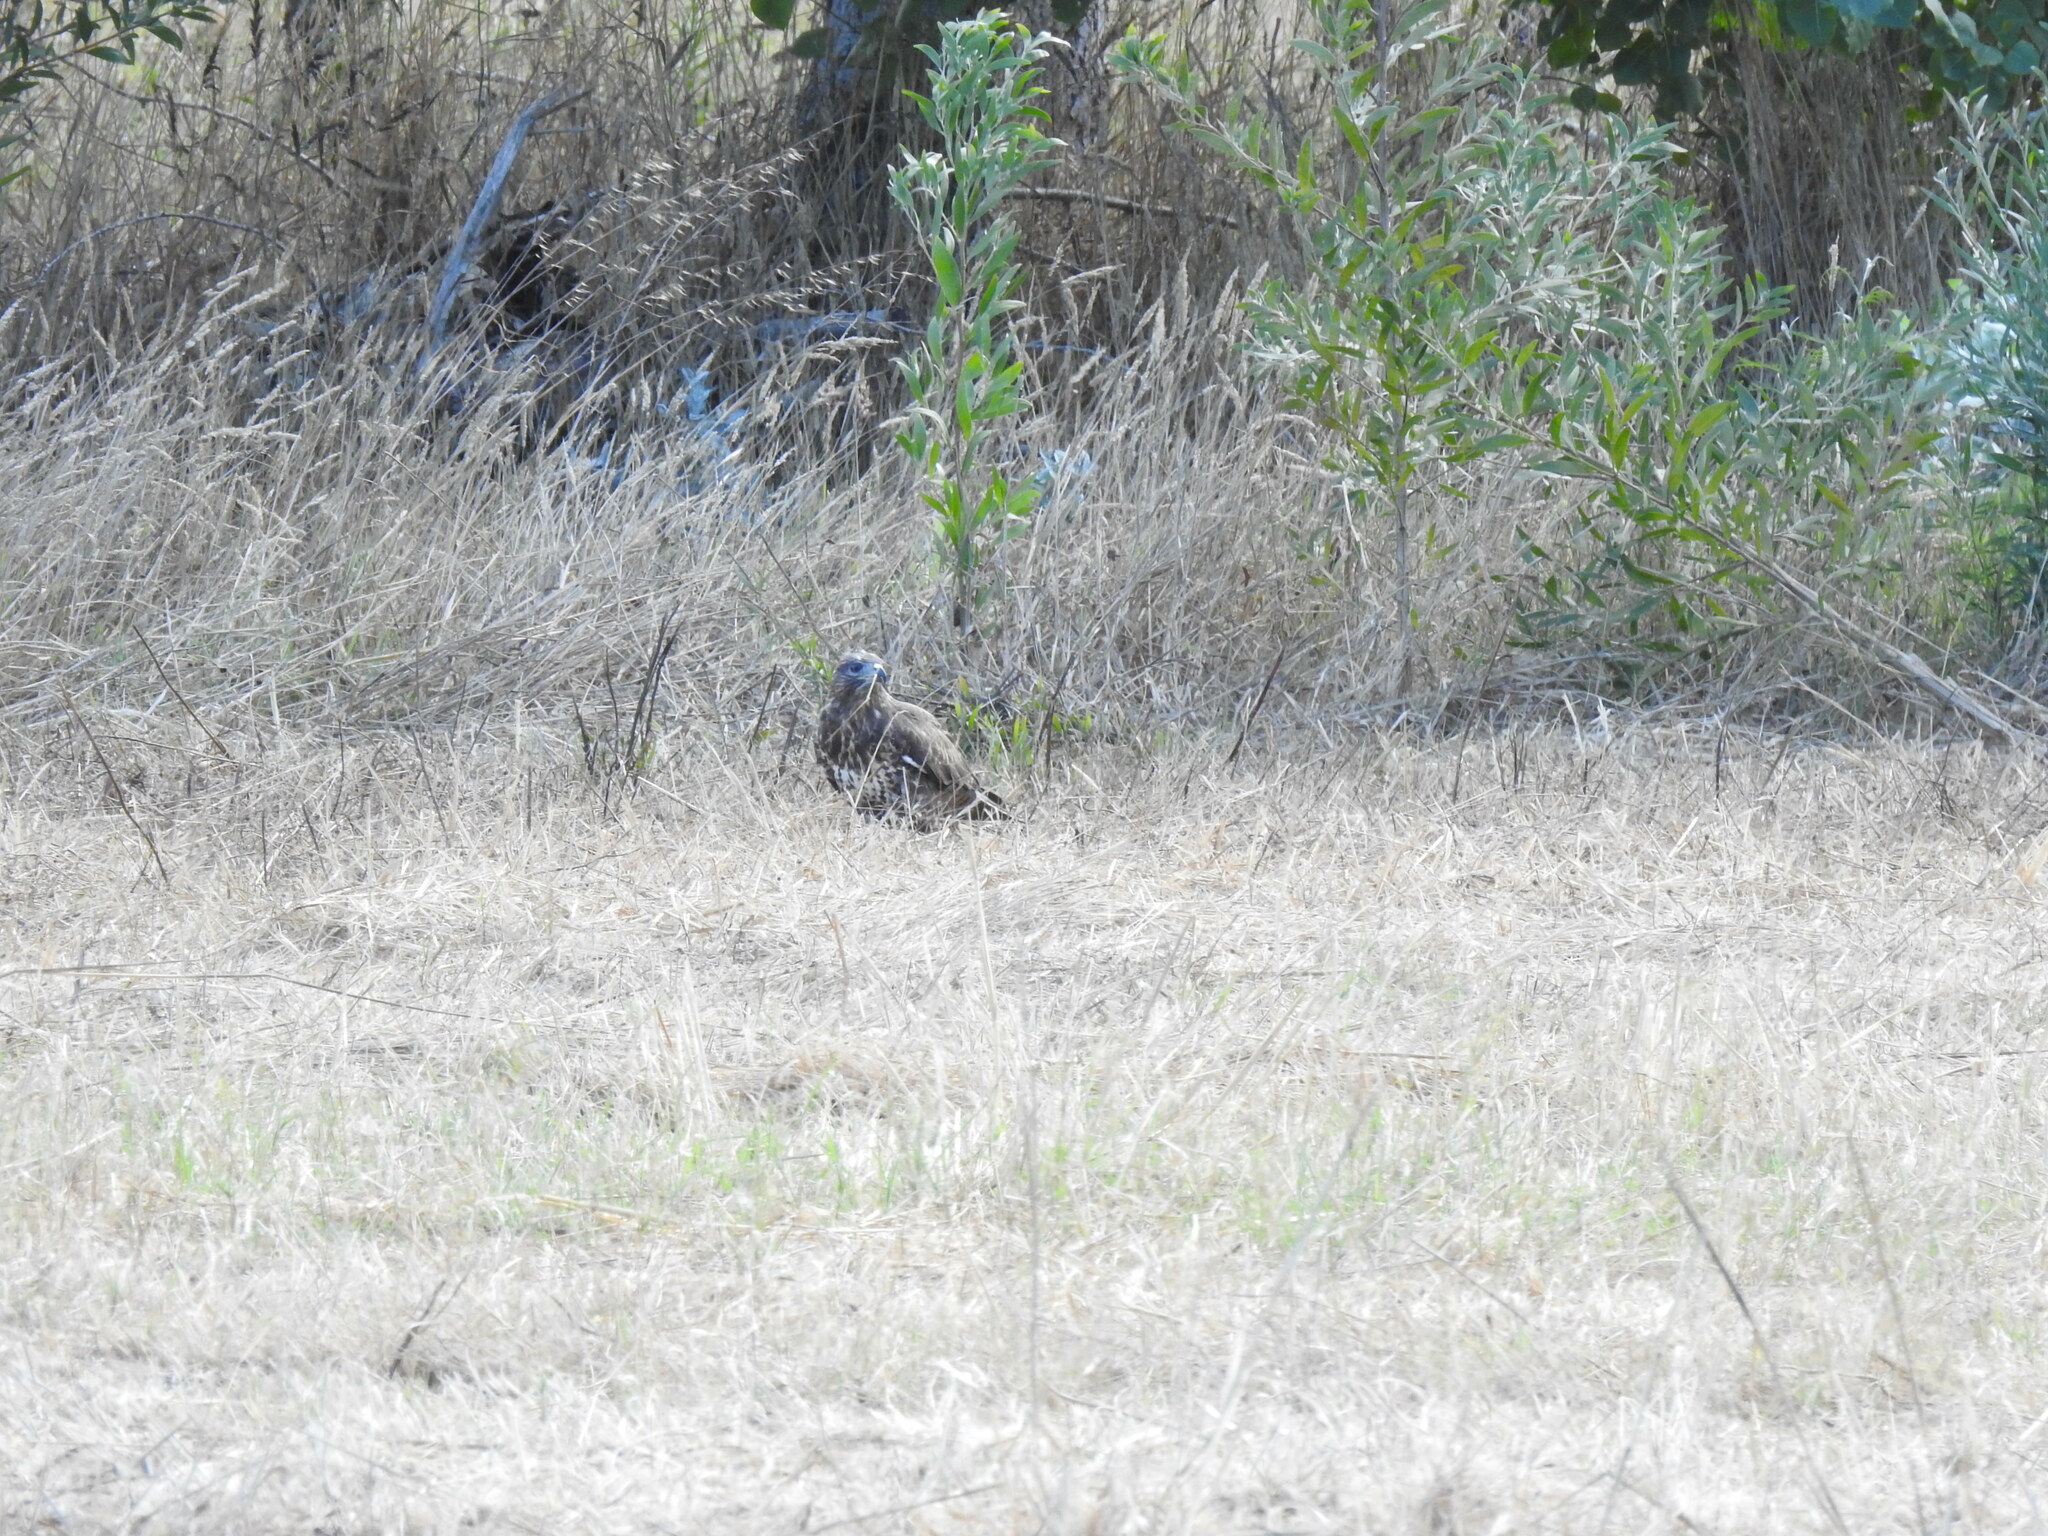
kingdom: Animalia
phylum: Chordata
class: Aves
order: Accipitriformes
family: Accipitridae
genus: Buteo
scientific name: Buteo buteo
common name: Common buzzard
